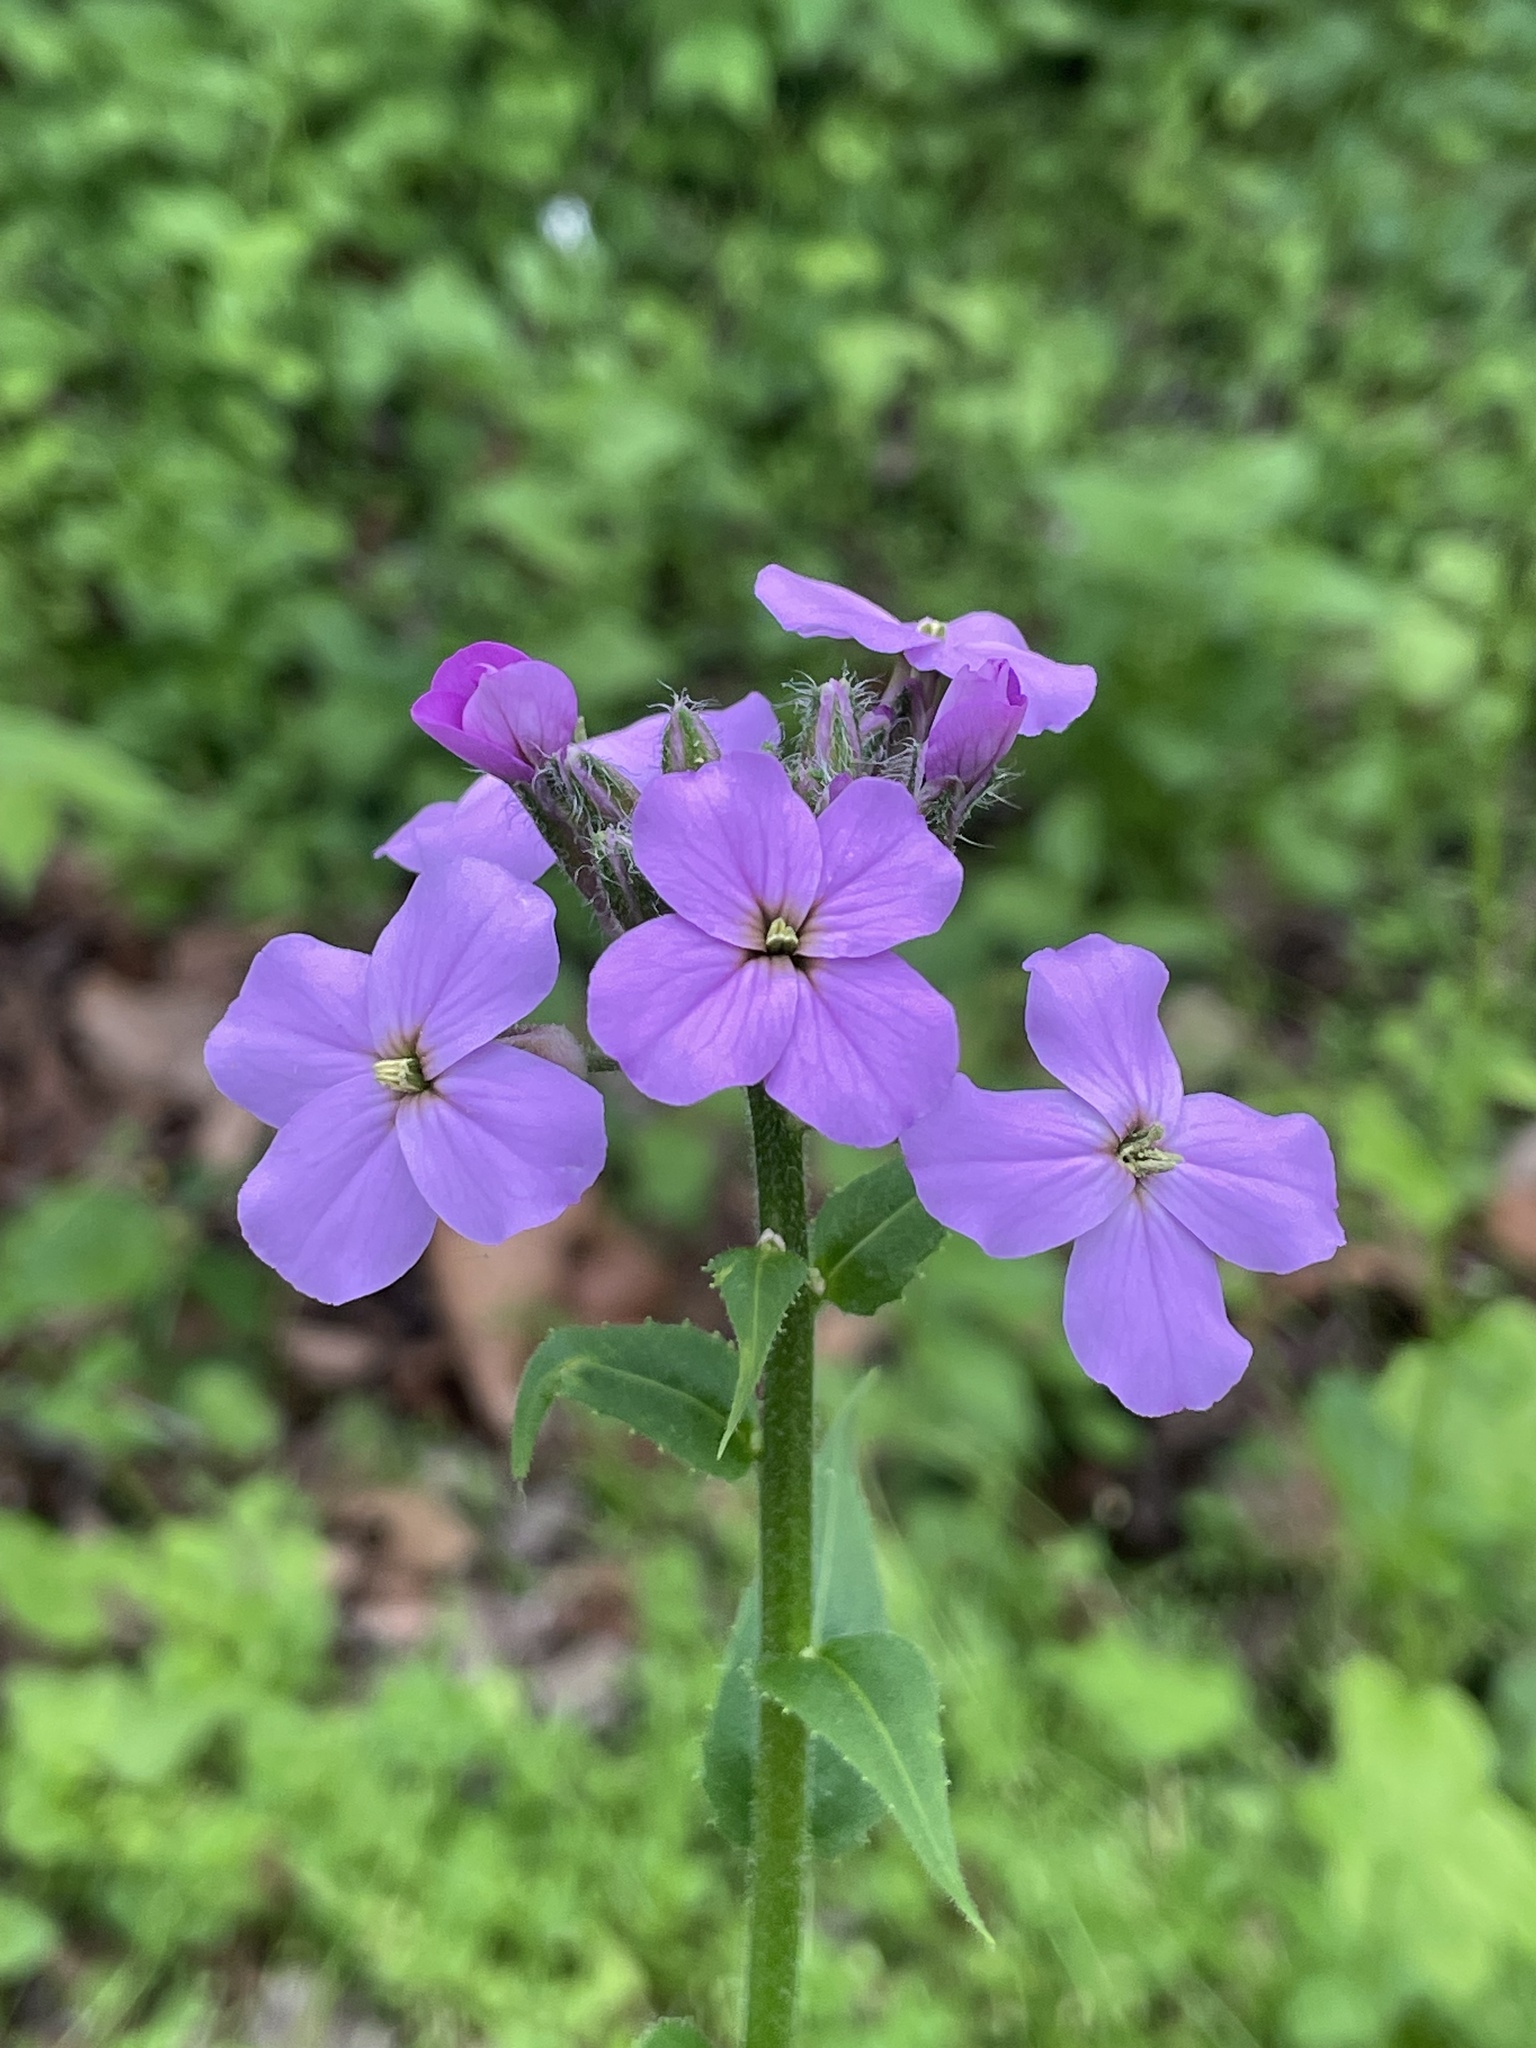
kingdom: Plantae
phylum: Tracheophyta
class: Magnoliopsida
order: Brassicales
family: Brassicaceae
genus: Hesperis
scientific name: Hesperis matronalis
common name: Dame's-violet
